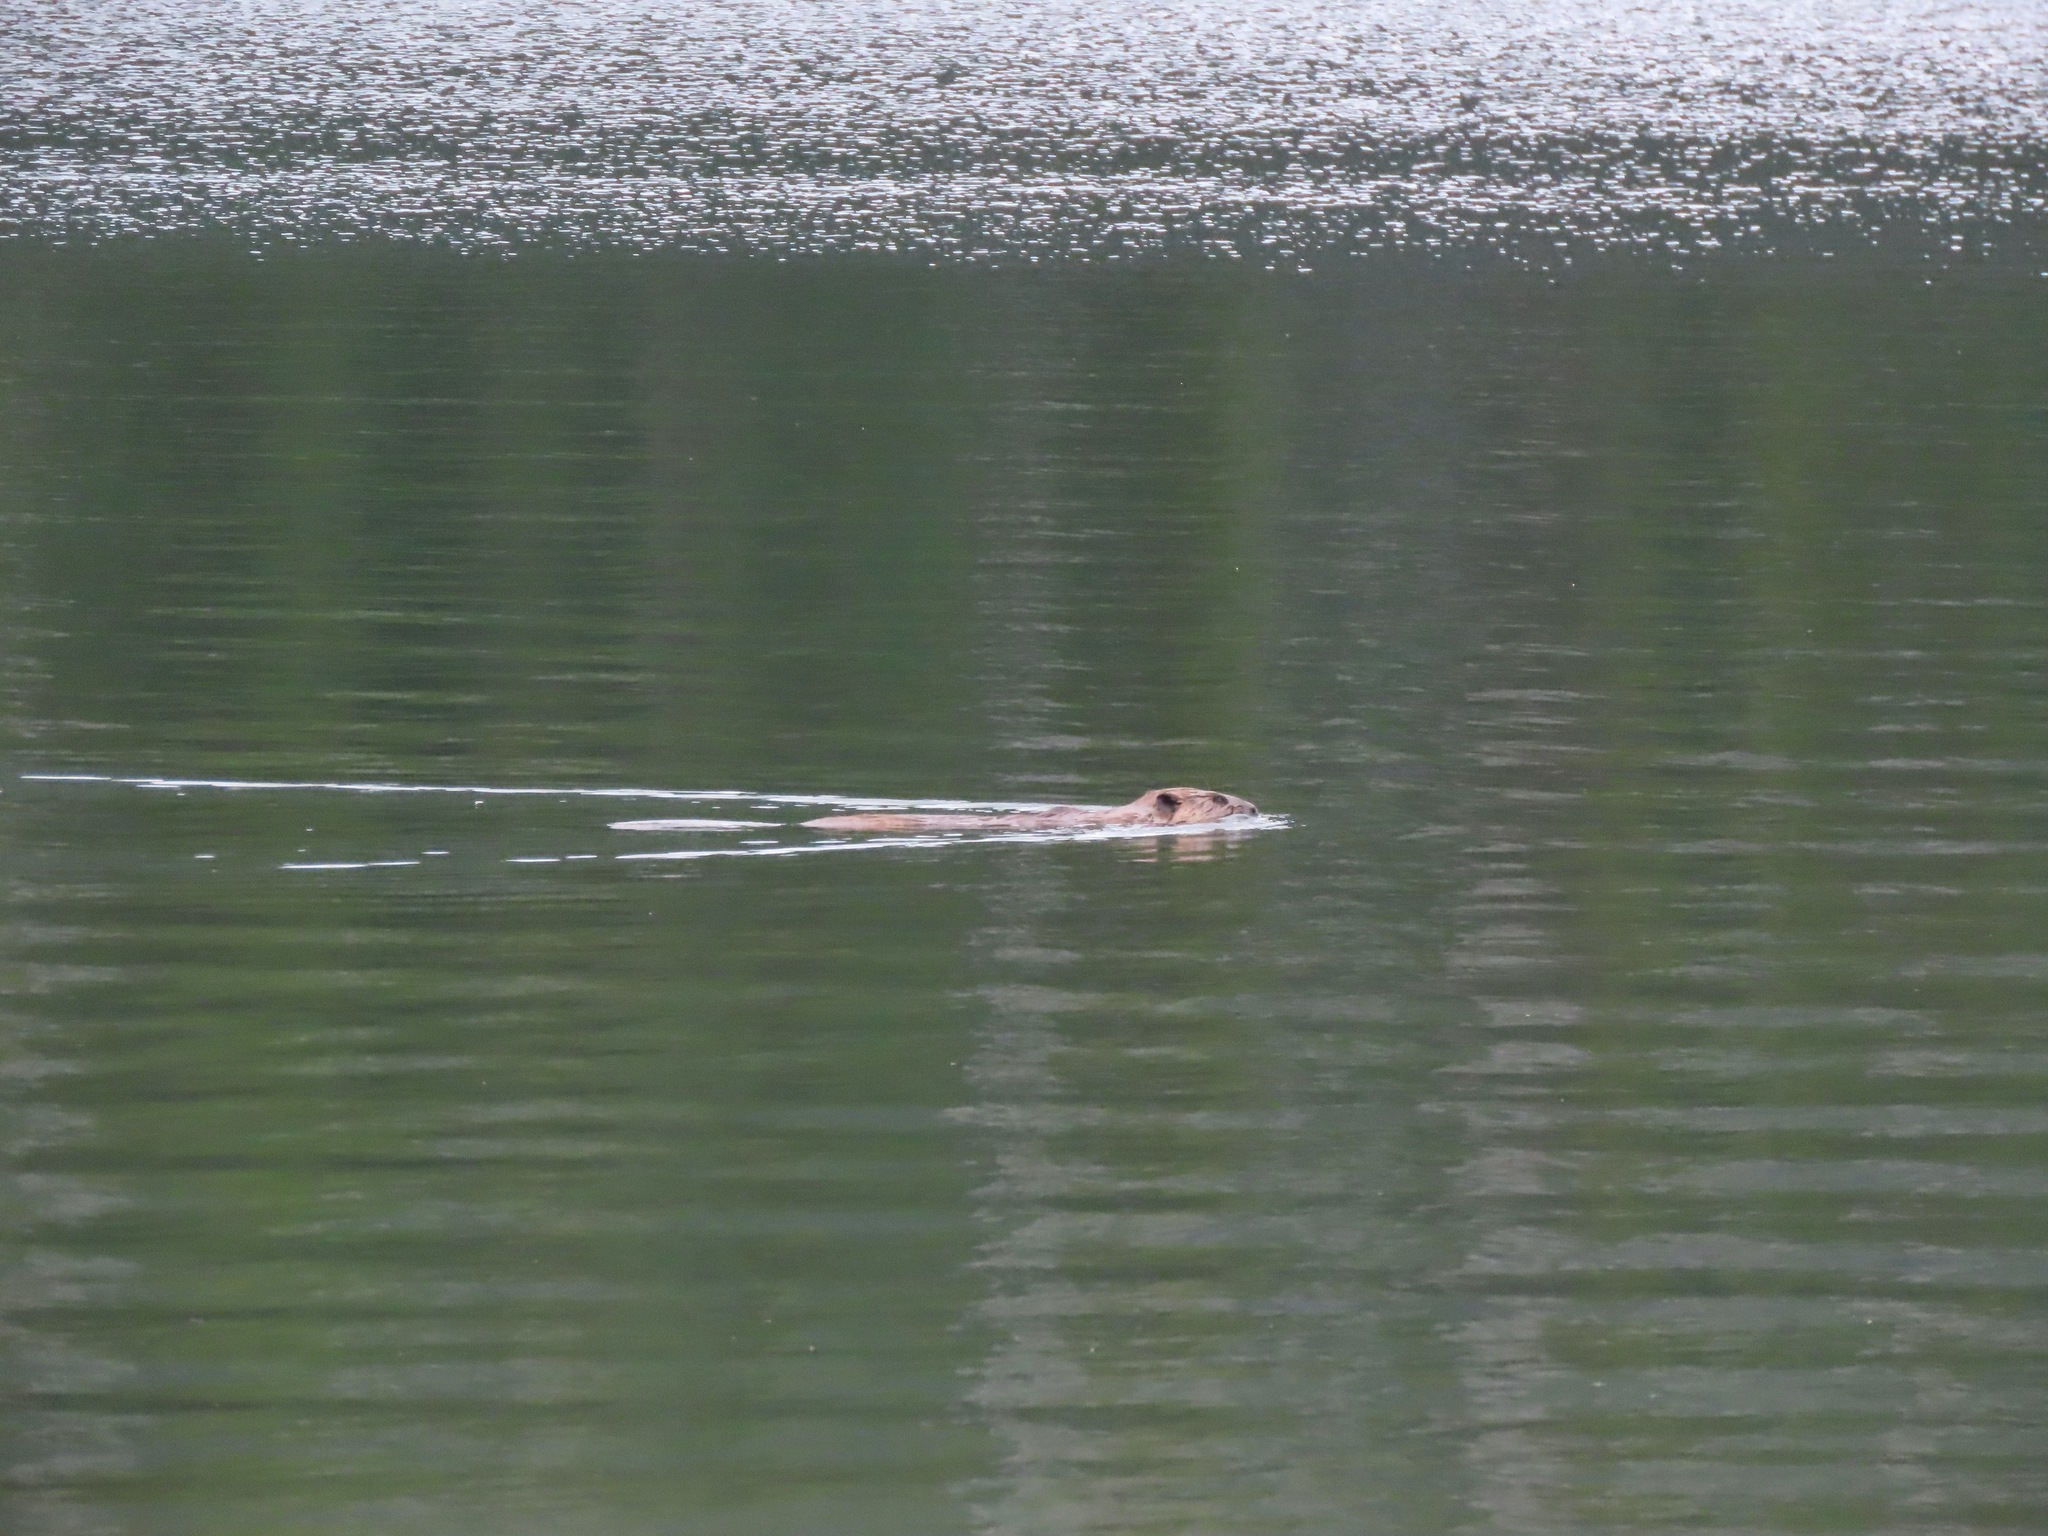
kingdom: Animalia
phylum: Chordata
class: Mammalia
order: Rodentia
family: Castoridae
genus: Castor
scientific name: Castor canadensis
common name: American beaver
